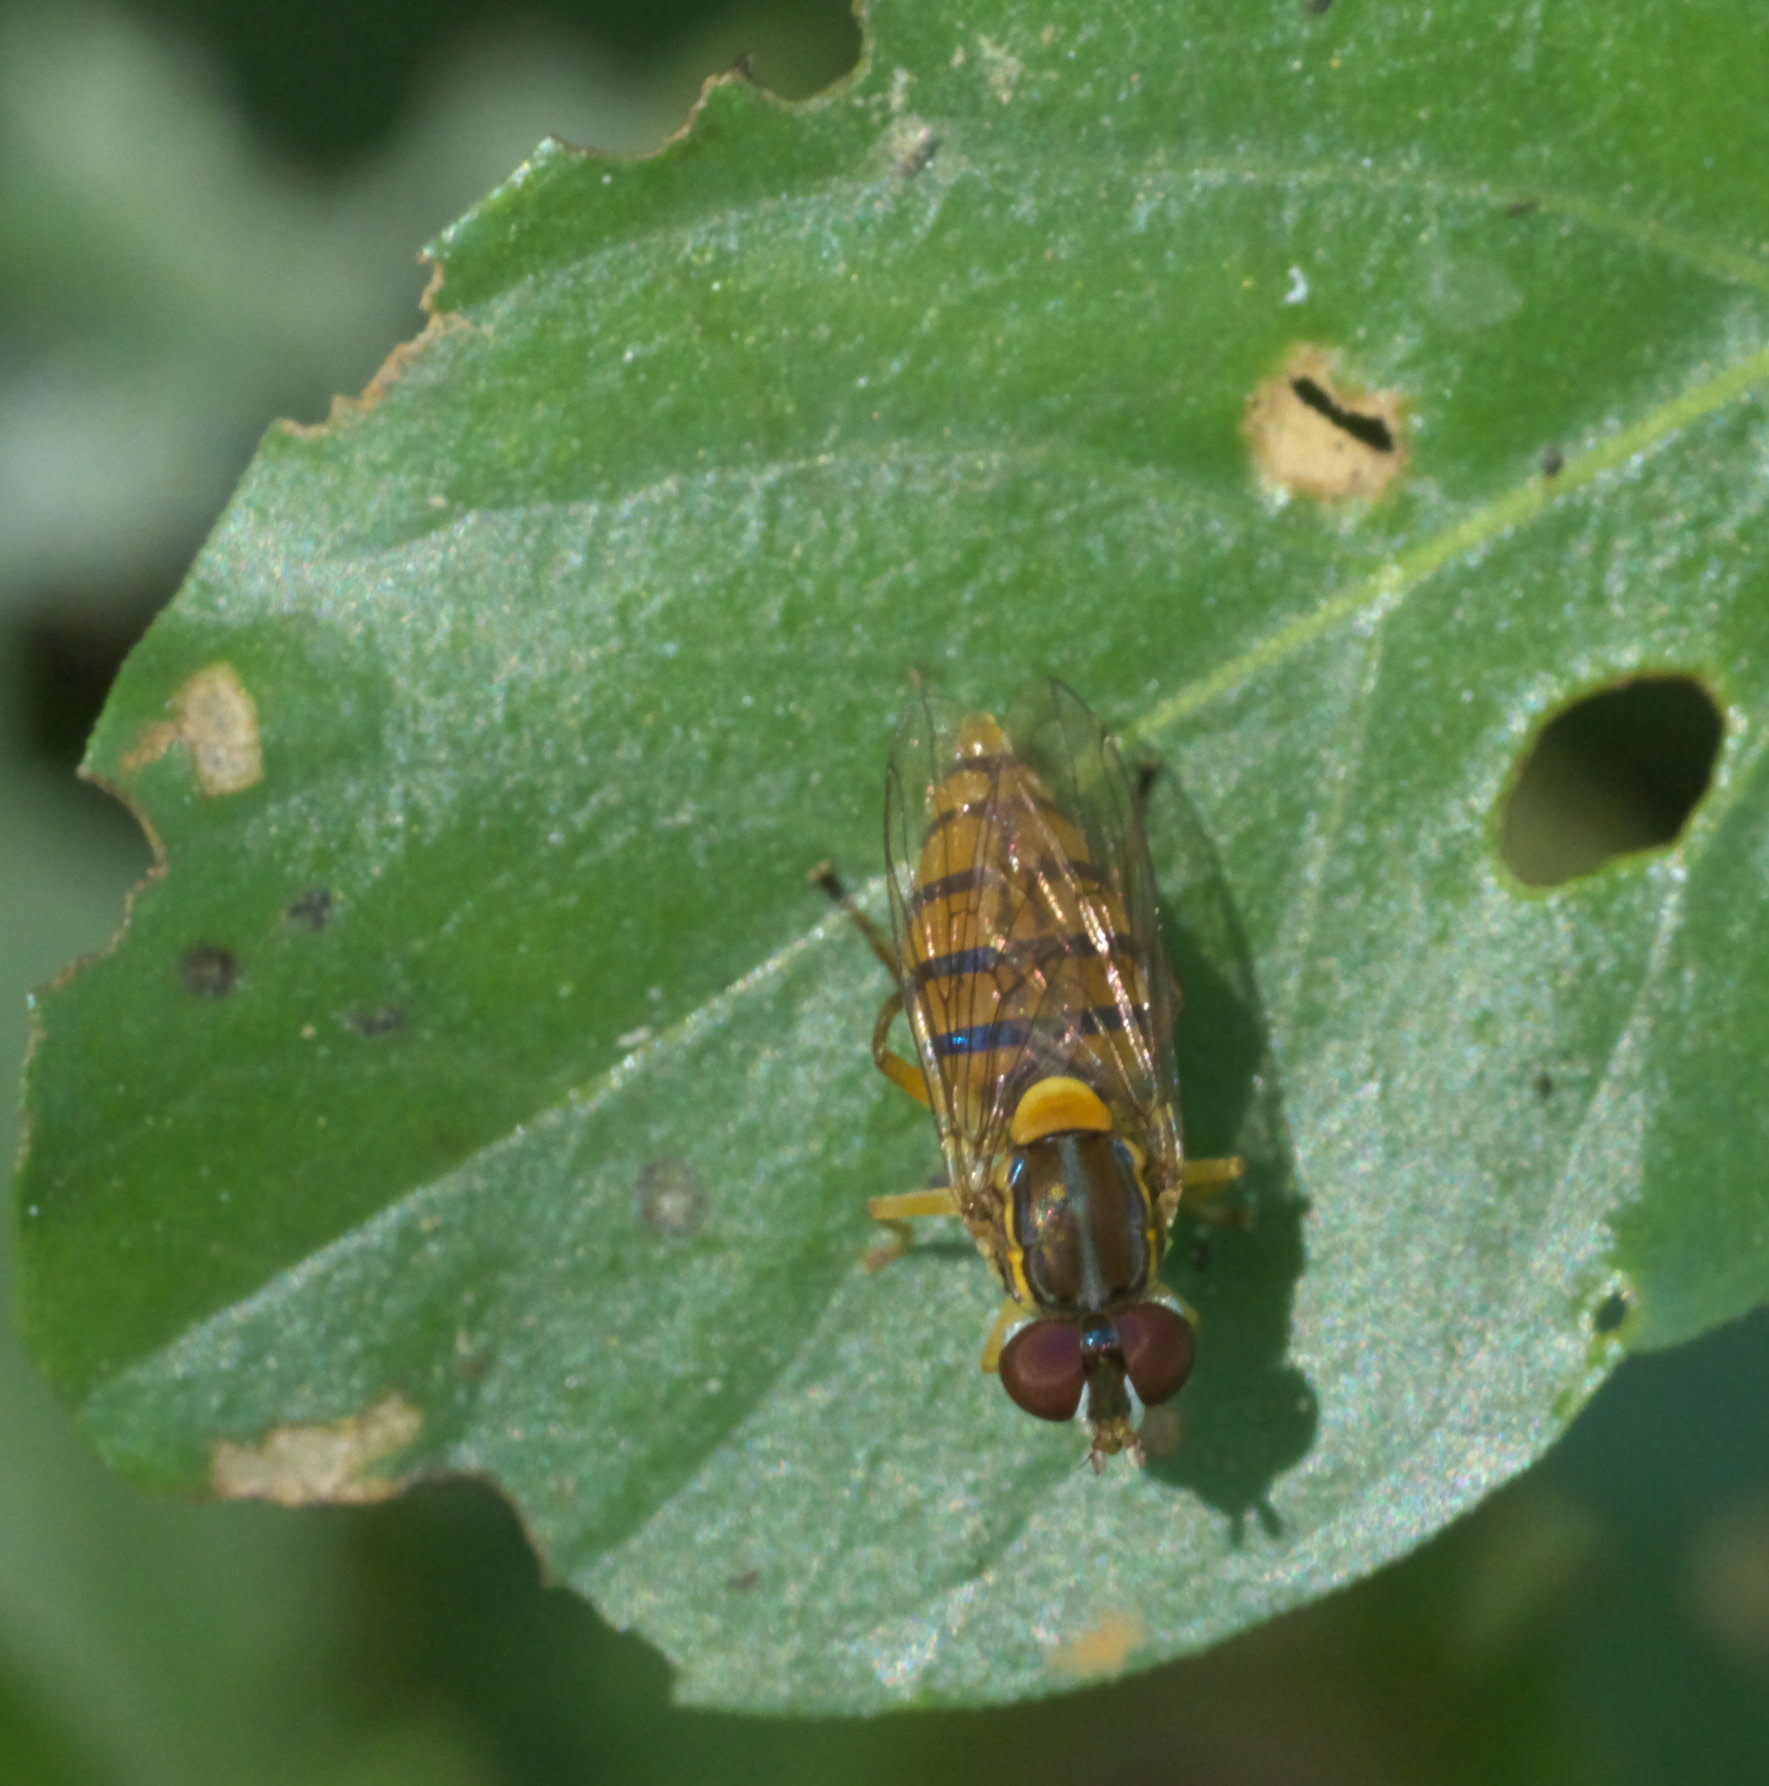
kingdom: Animalia
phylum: Arthropoda
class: Insecta
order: Diptera
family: Syrphidae
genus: Toxomerus
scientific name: Toxomerus jussiaeae
